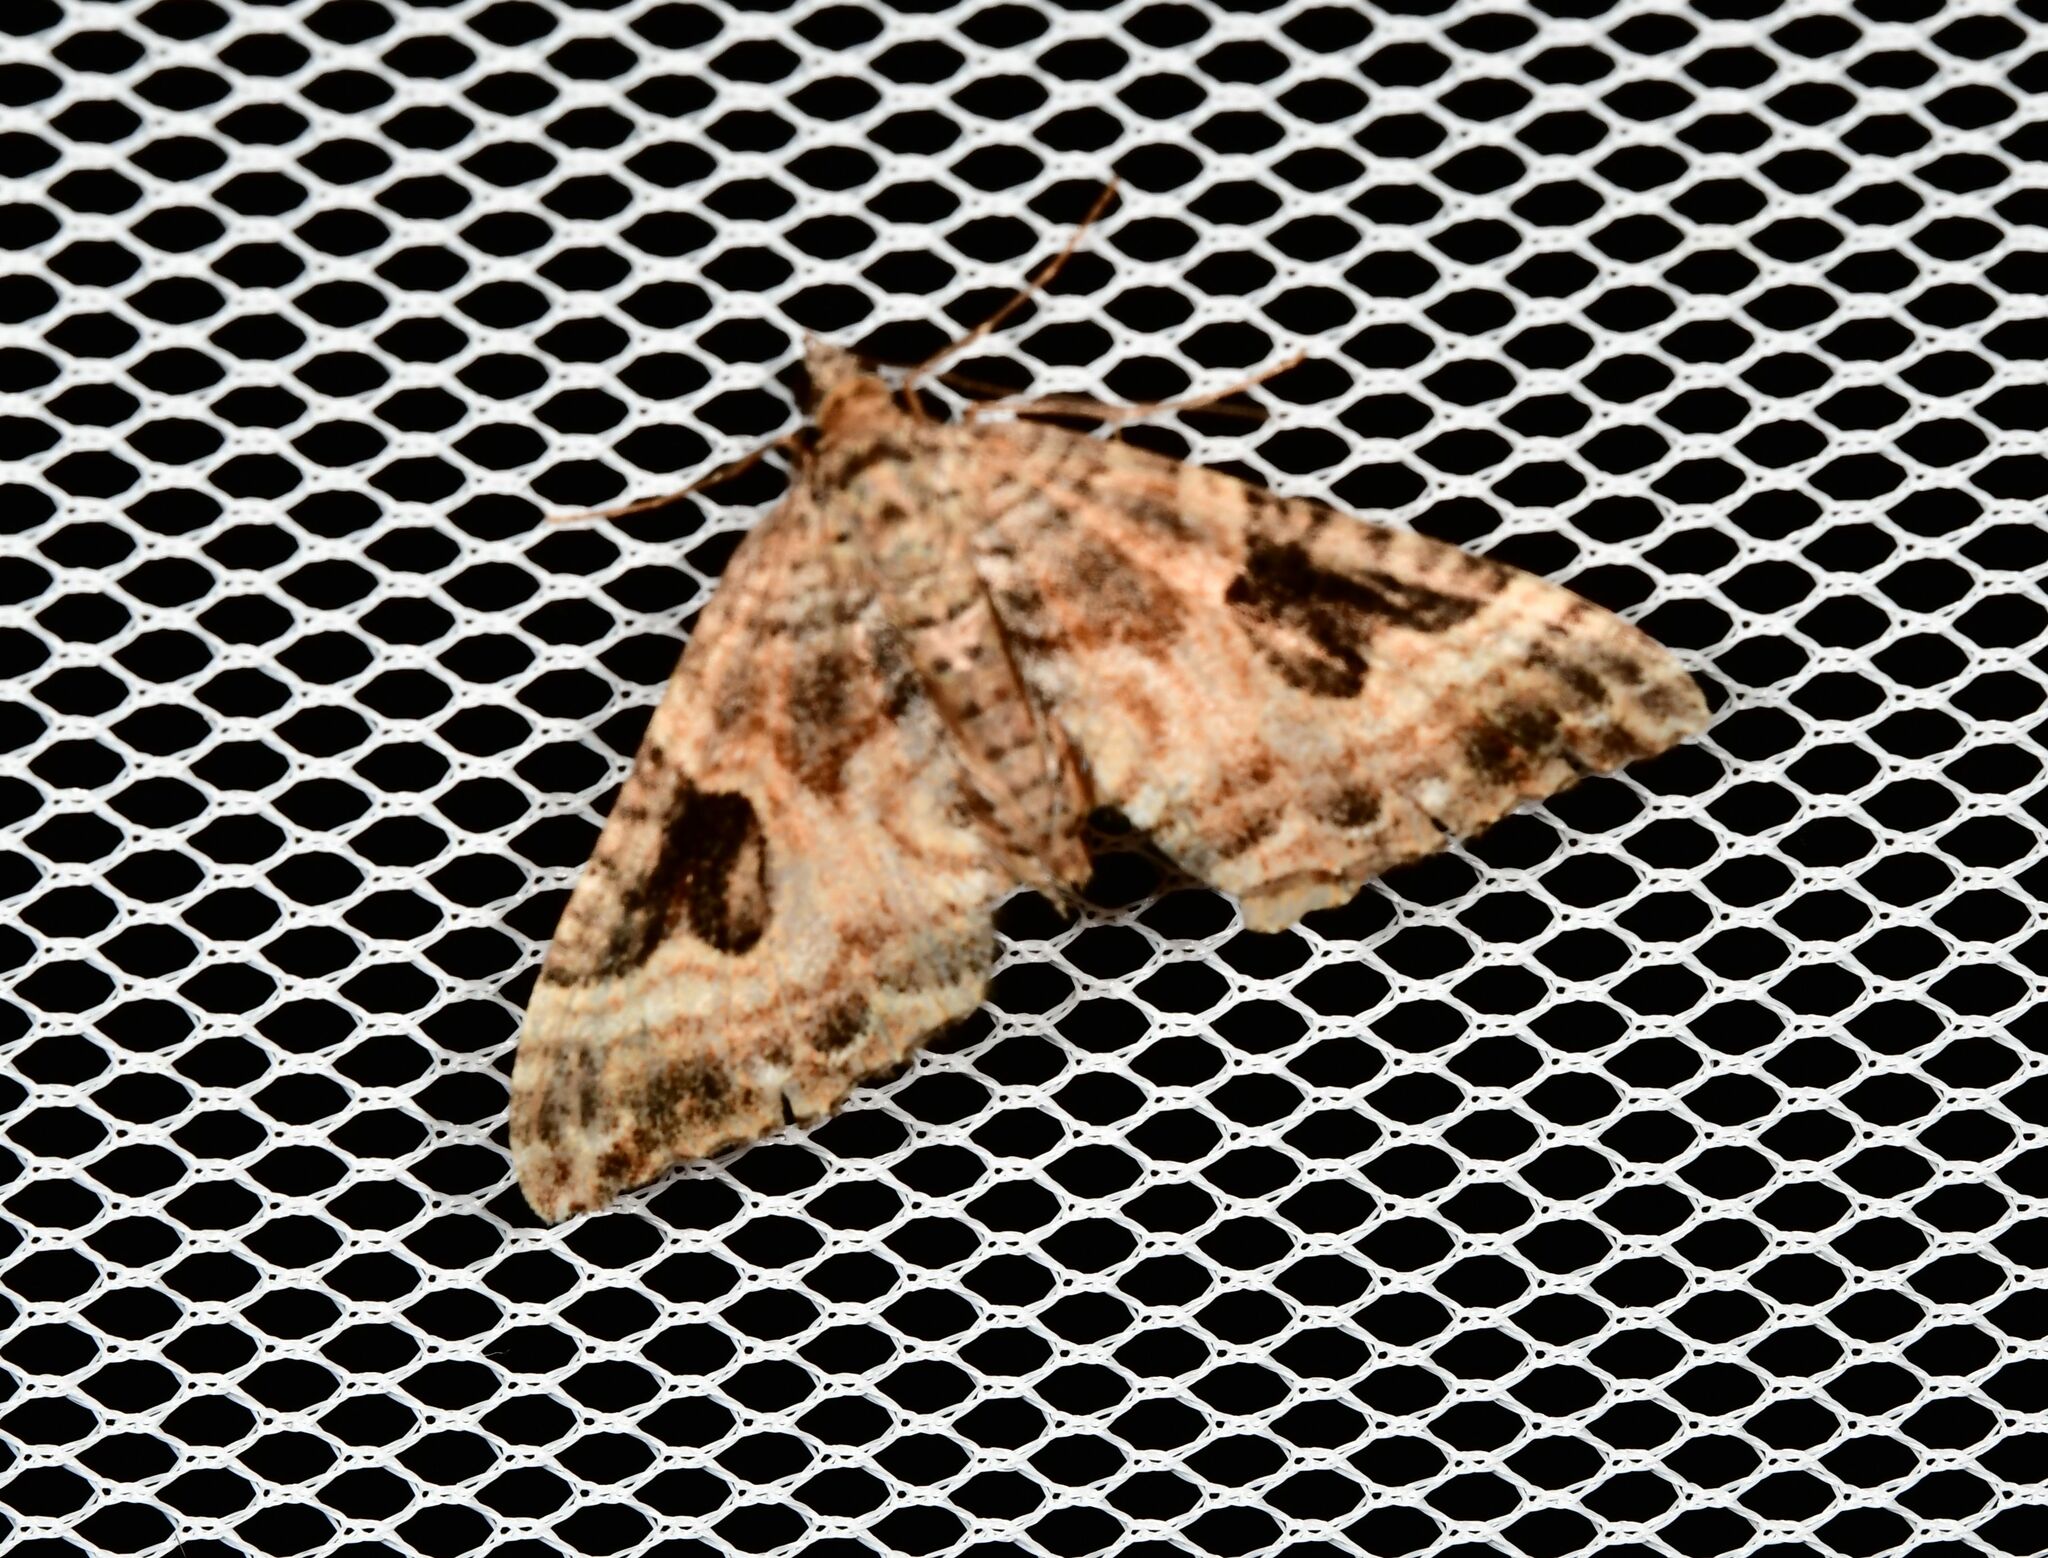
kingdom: Animalia
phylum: Arthropoda
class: Insecta
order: Lepidoptera
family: Geometridae
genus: Hydriomena
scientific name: Hydriomena deltoidata
